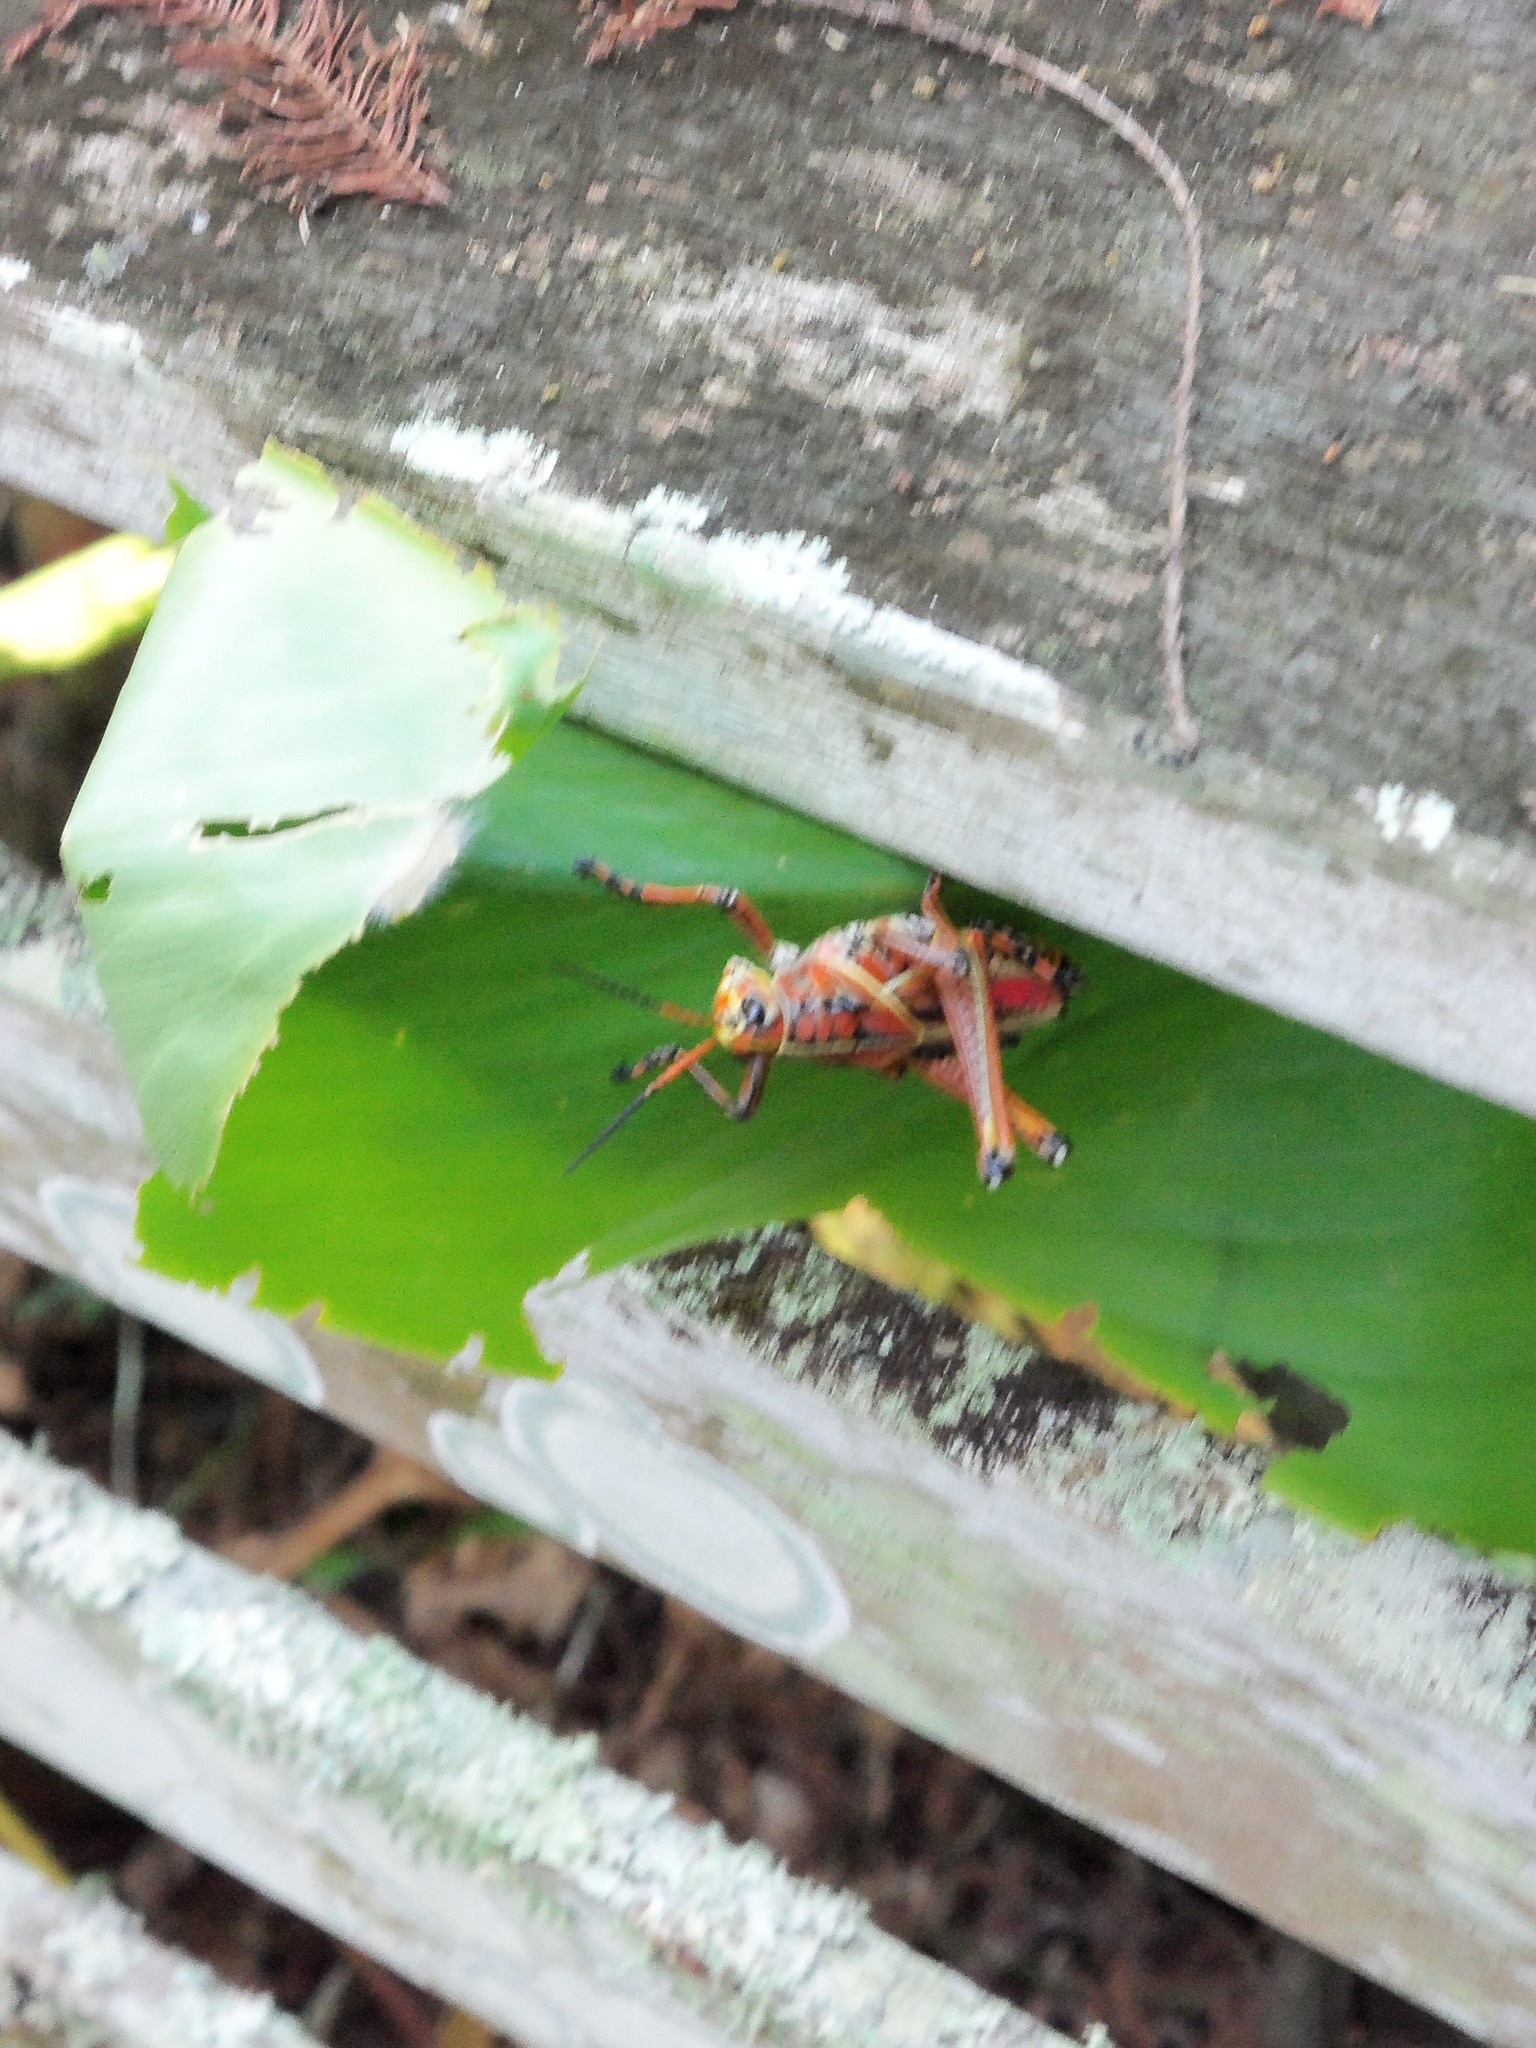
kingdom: Animalia
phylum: Arthropoda
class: Insecta
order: Orthoptera
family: Romaleidae
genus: Romalea
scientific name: Romalea microptera
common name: Eastern lubber grasshopper
